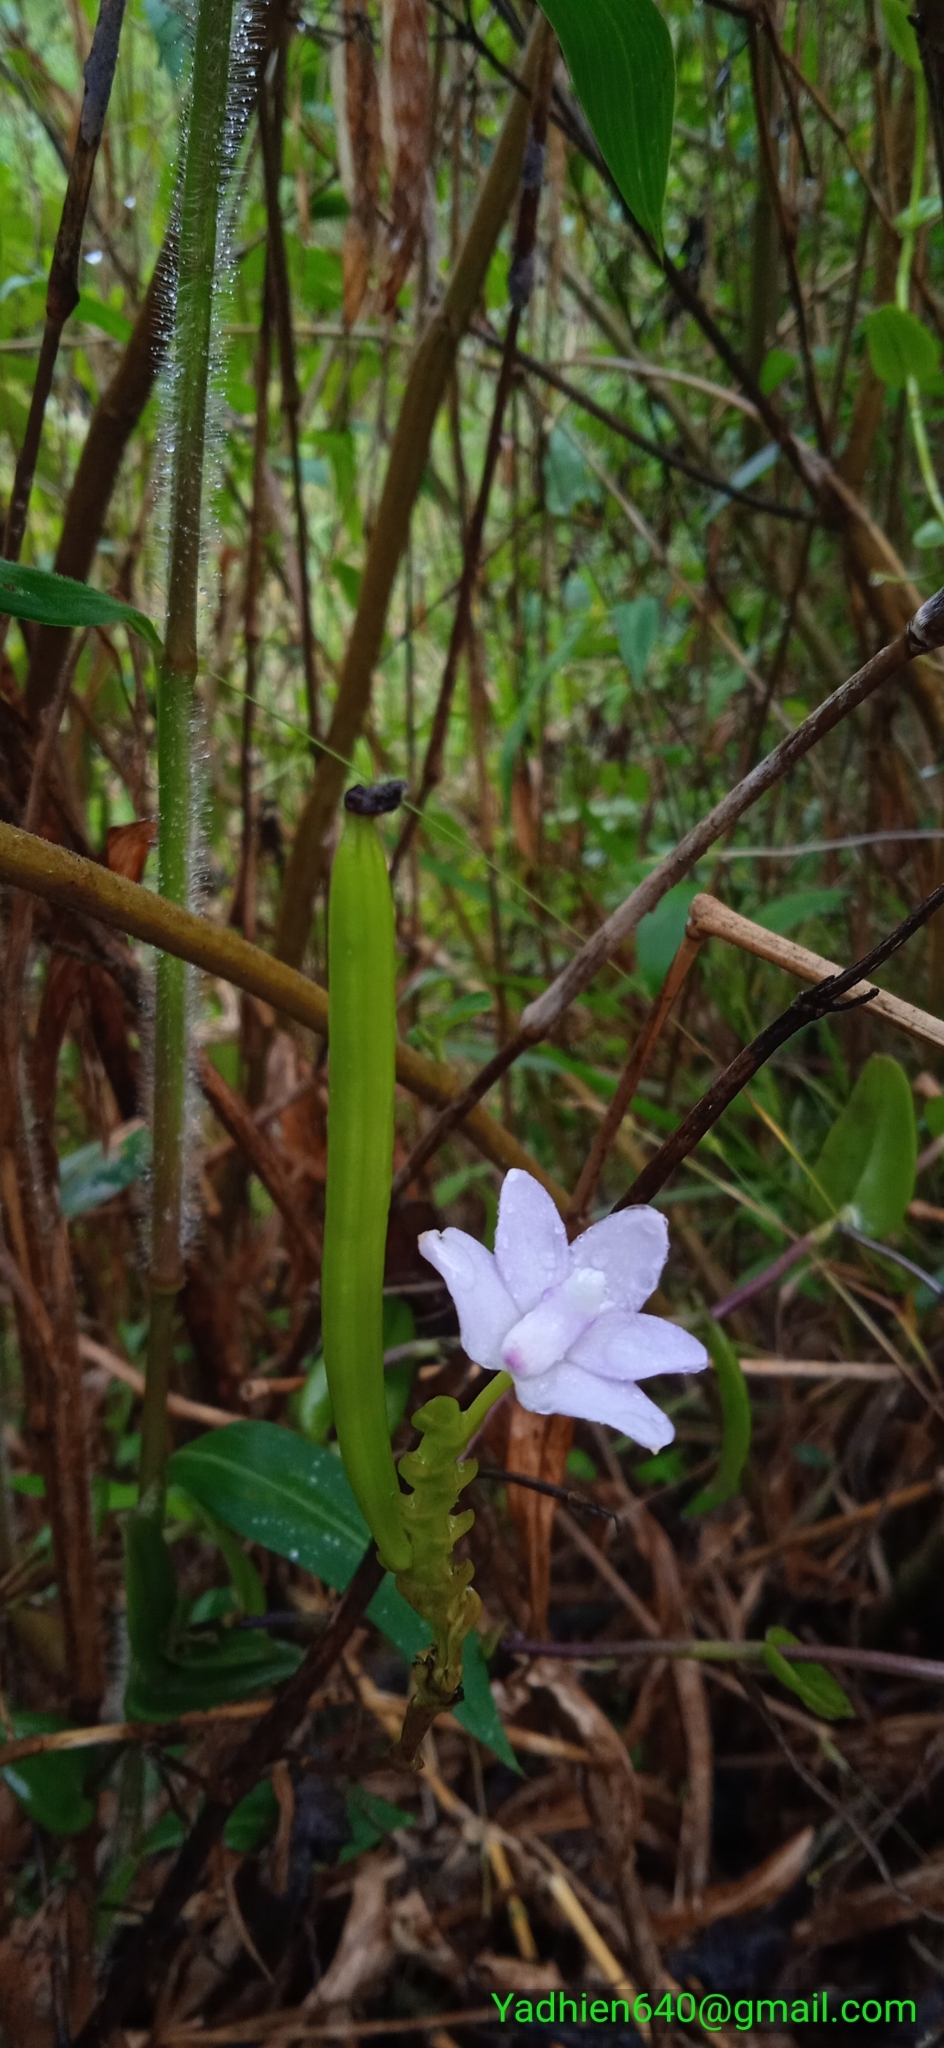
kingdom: Plantae
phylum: Tracheophyta
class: Liliopsida
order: Asparagales
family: Orchidaceae
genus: Thrixspermum
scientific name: Thrixspermum amplexicaule
